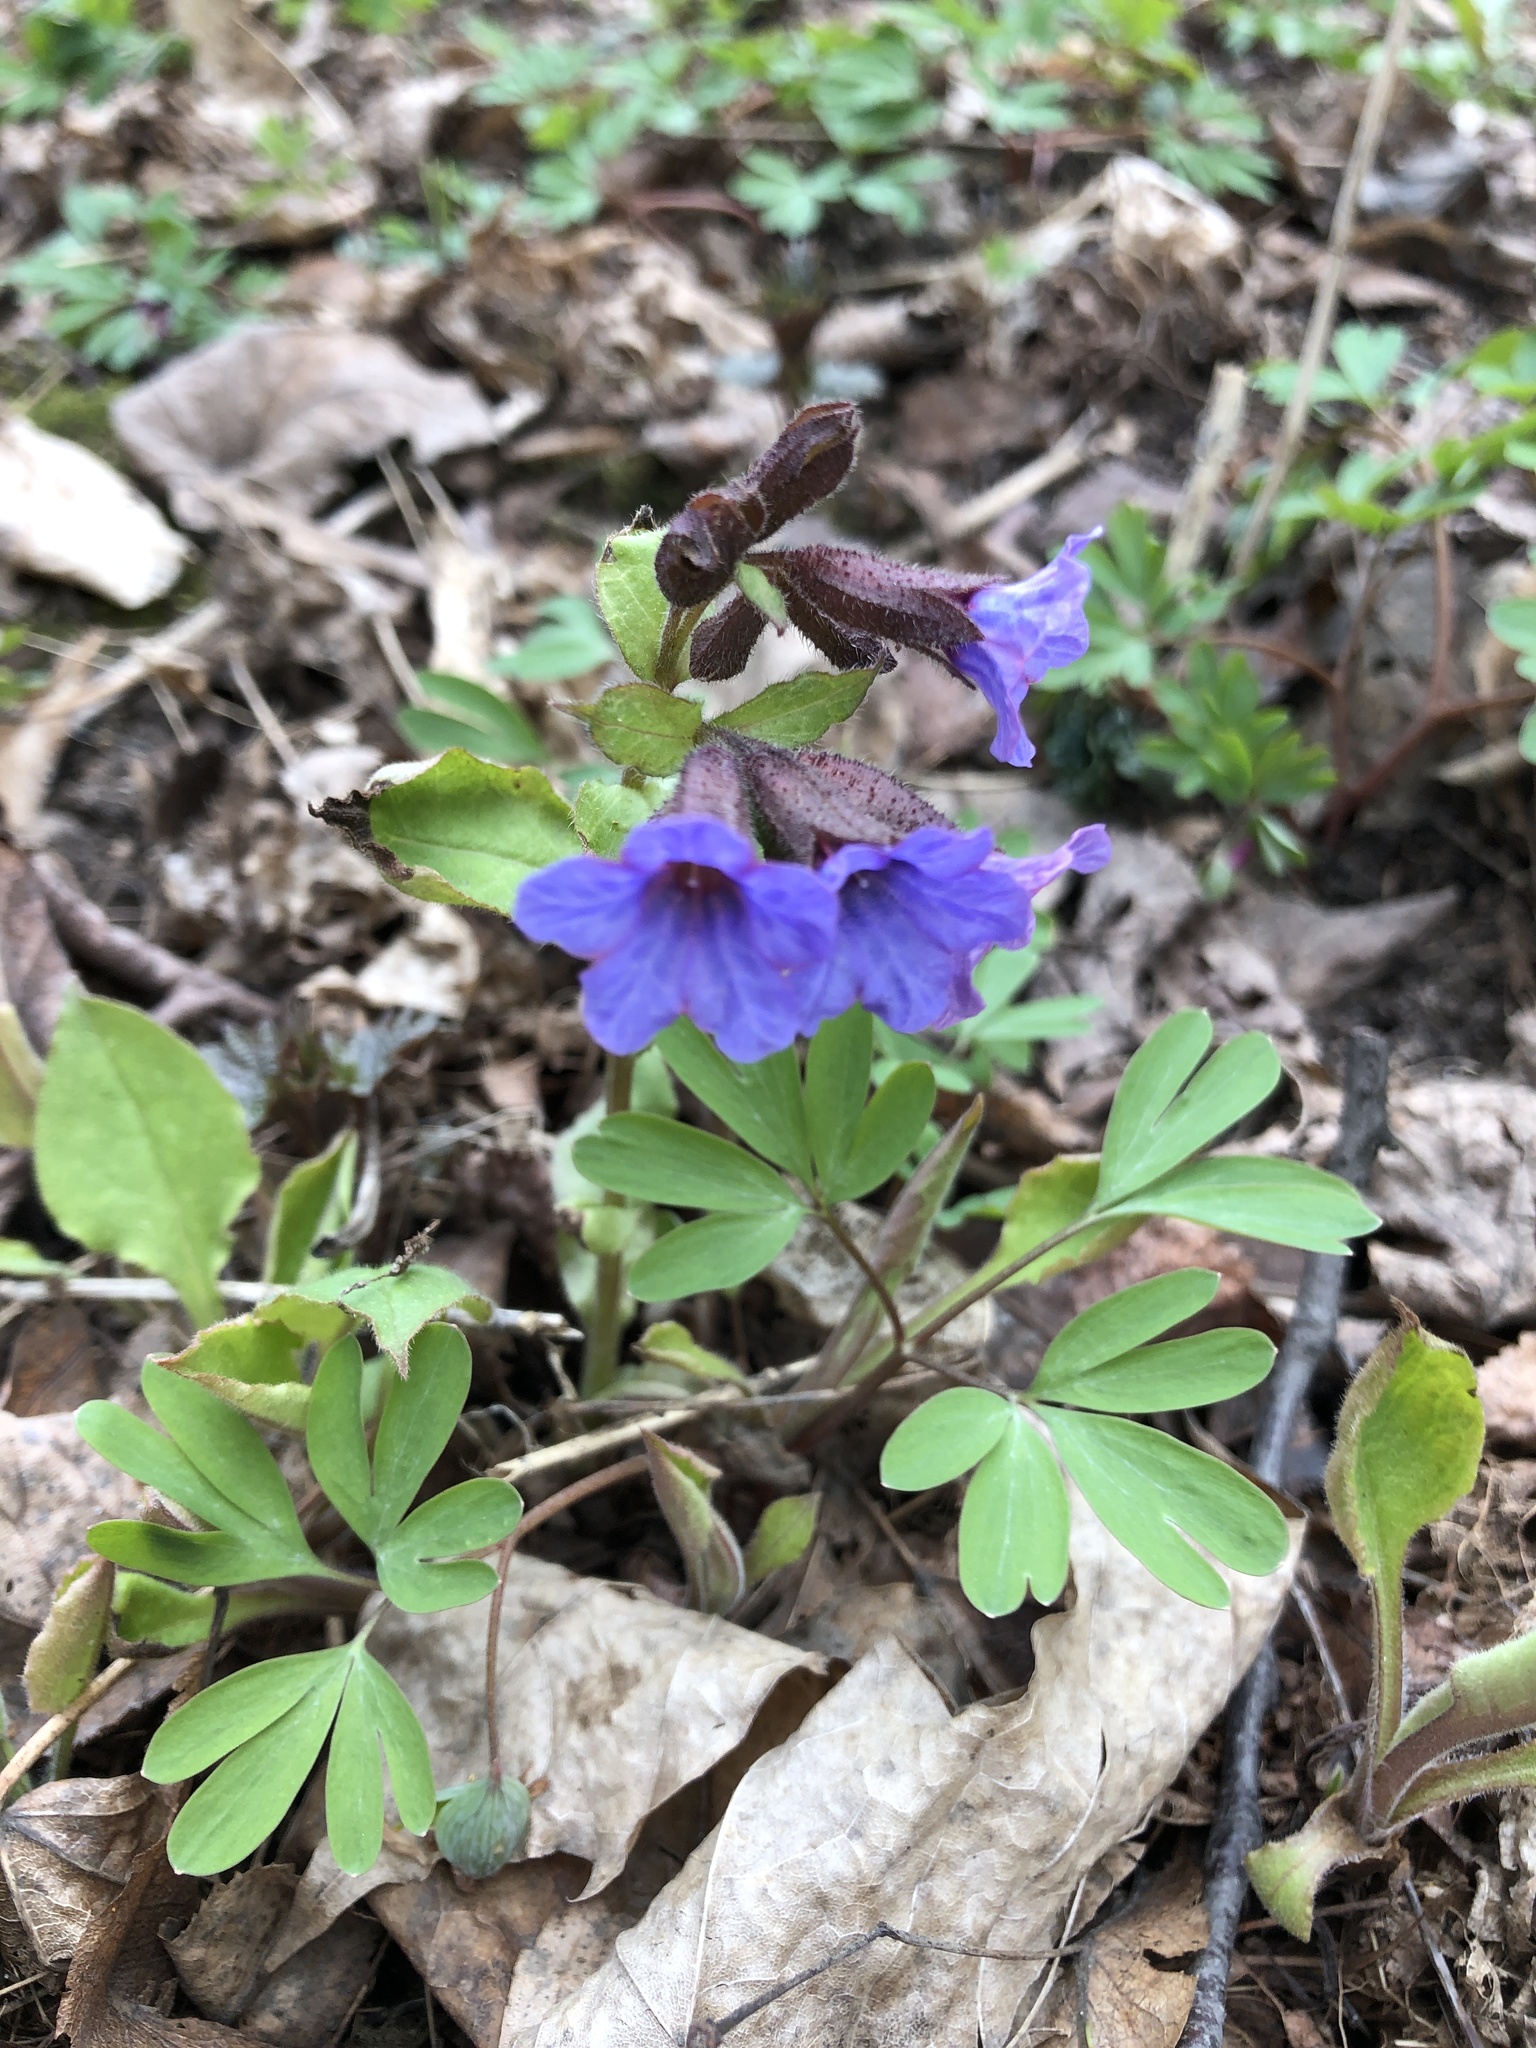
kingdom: Plantae
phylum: Tracheophyta
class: Magnoliopsida
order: Boraginales
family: Boraginaceae
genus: Pulmonaria
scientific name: Pulmonaria obscura
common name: Suffolk lungwort
